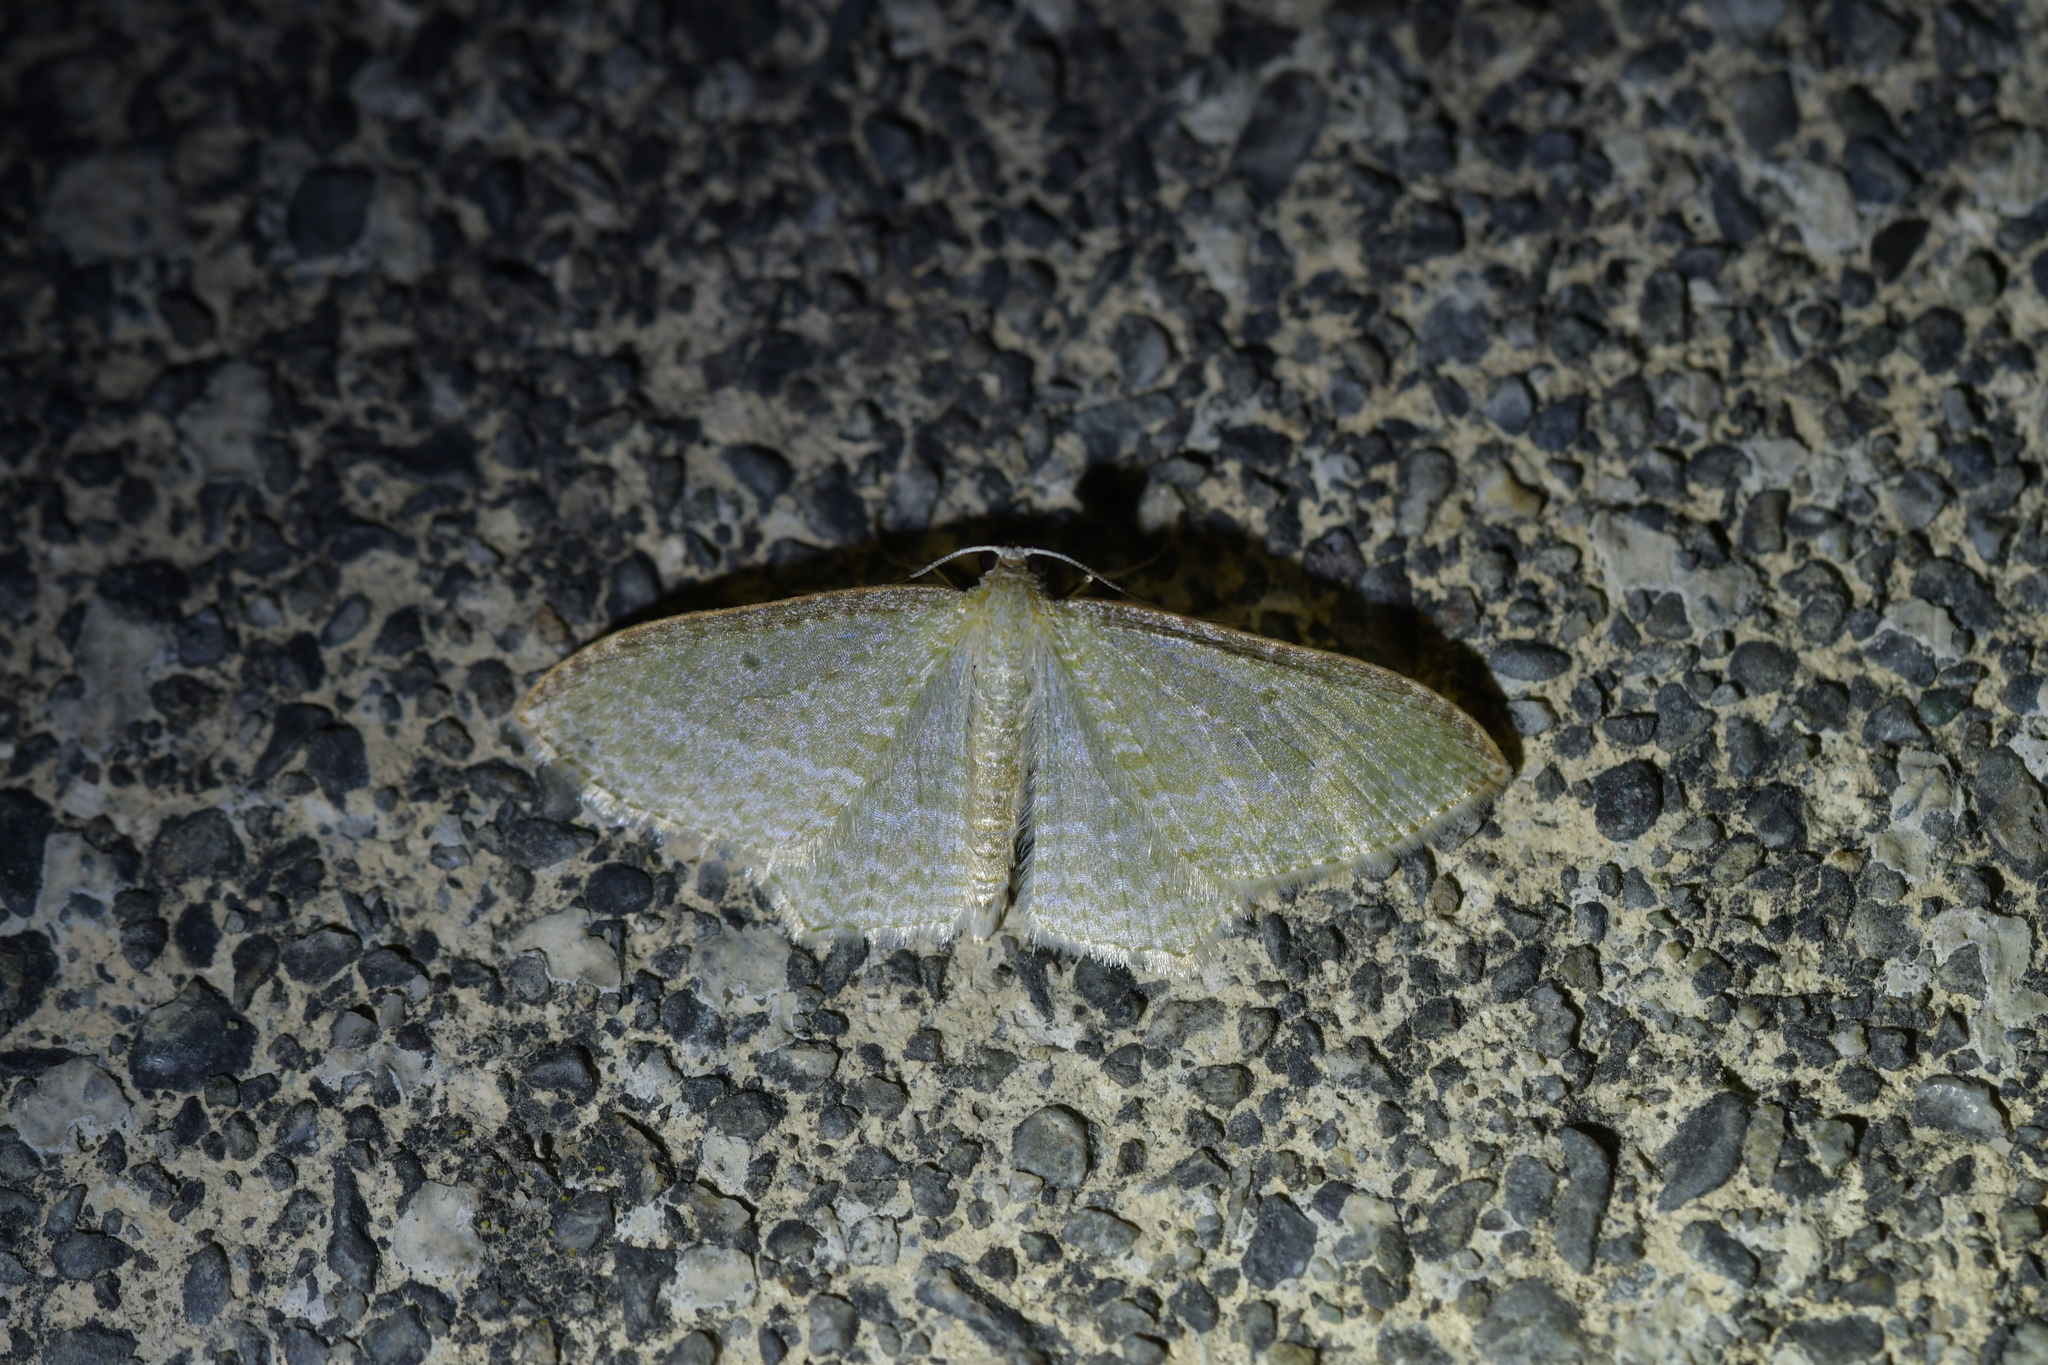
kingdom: Animalia
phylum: Arthropoda
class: Insecta
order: Lepidoptera
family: Geometridae
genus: Poecilasthena
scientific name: Poecilasthena pulchraria
